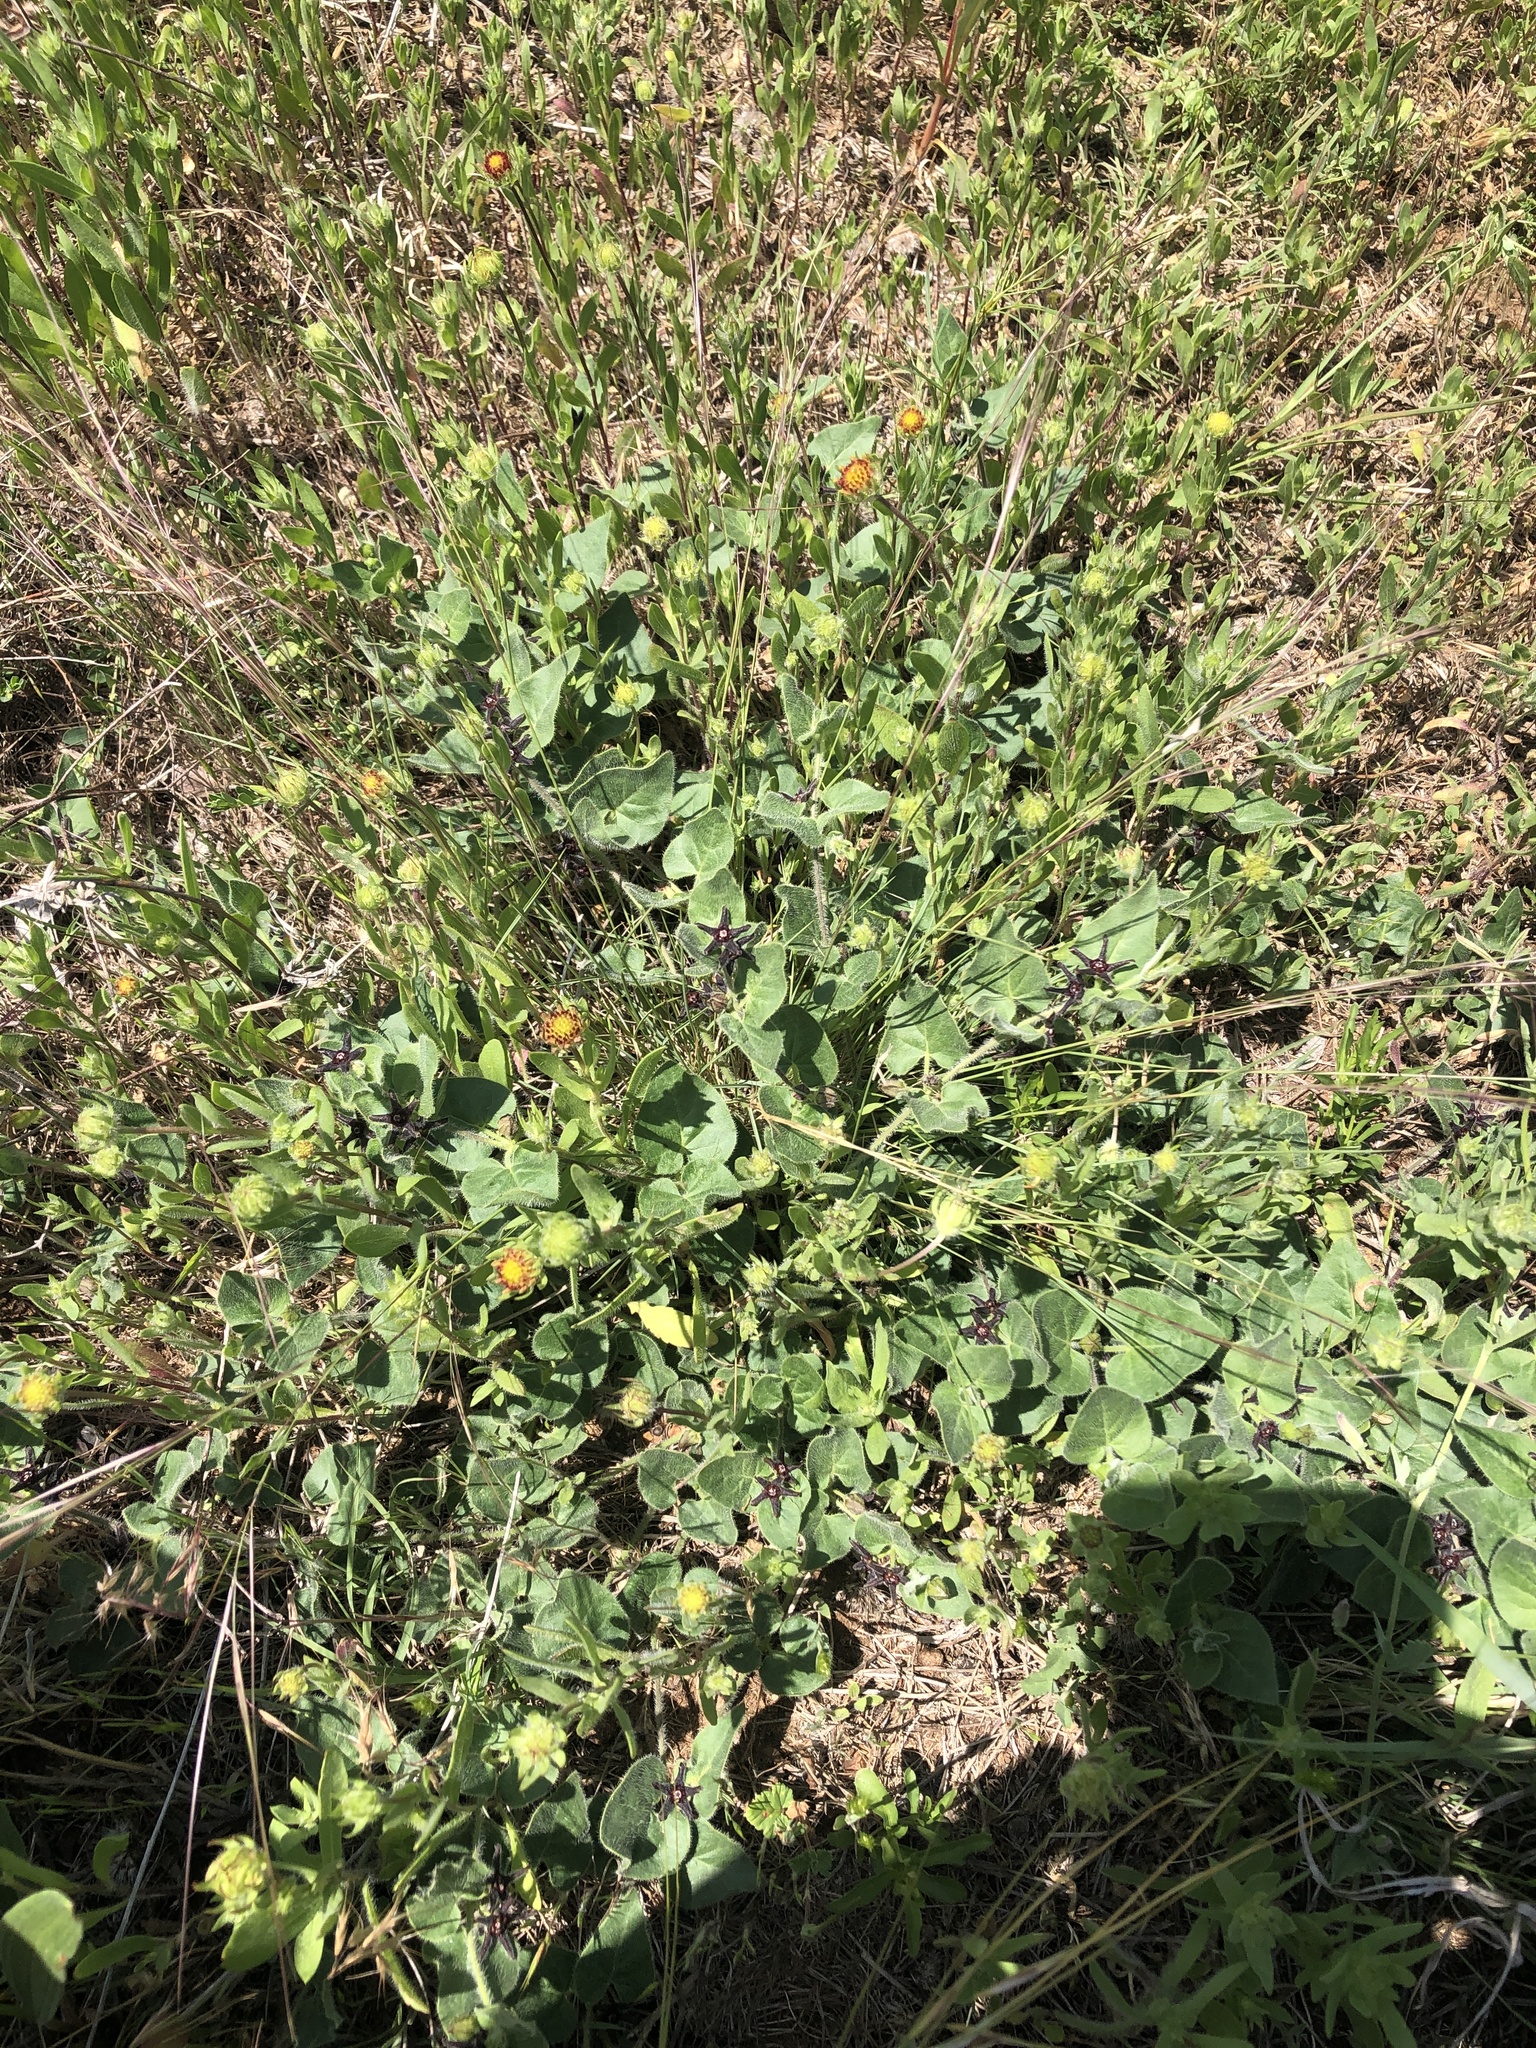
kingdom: Plantae
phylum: Tracheophyta
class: Magnoliopsida
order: Gentianales
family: Apocynaceae
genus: Chthamalia
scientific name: Chthamalia biflora
